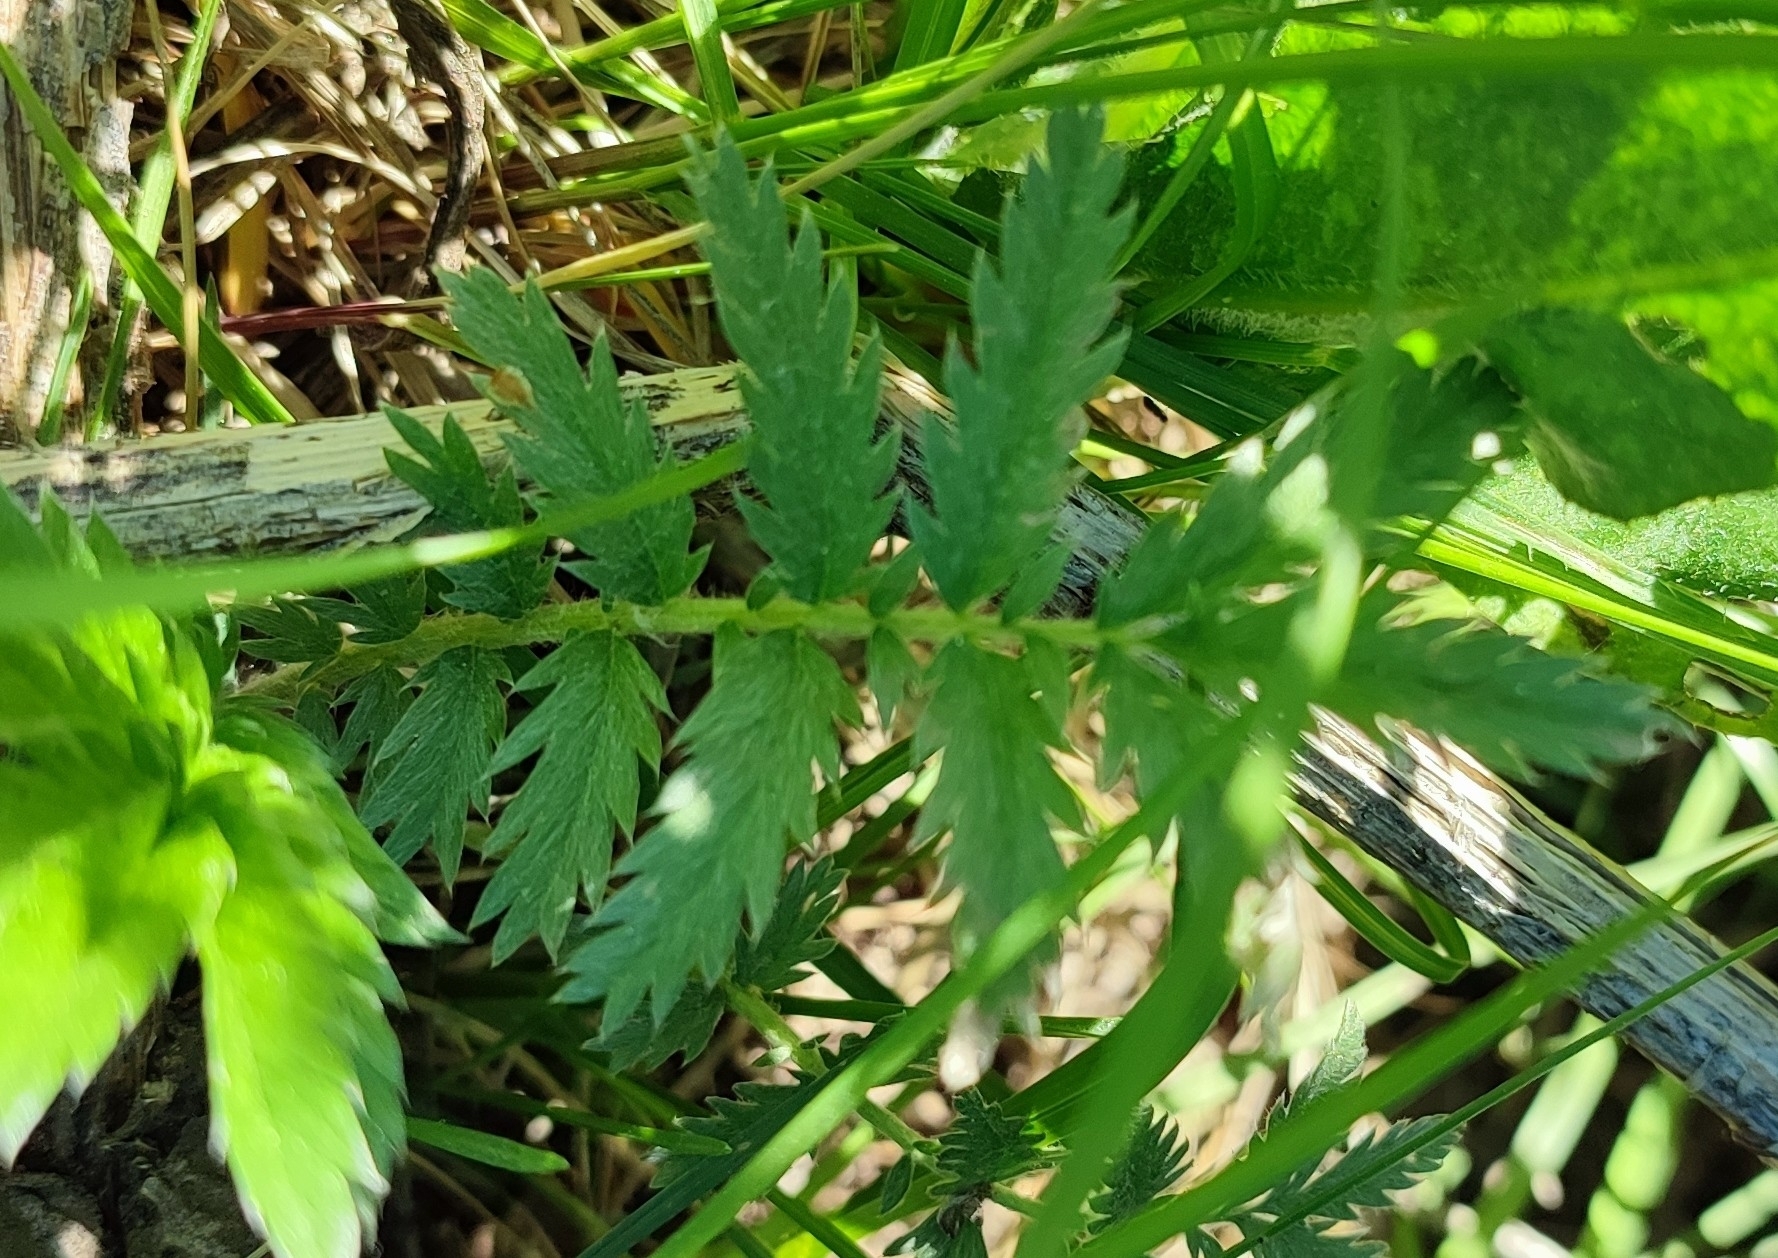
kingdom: Plantae
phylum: Tracheophyta
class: Magnoliopsida
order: Rosales
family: Rosaceae
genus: Argentina
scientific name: Argentina anserina
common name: Common silverweed
